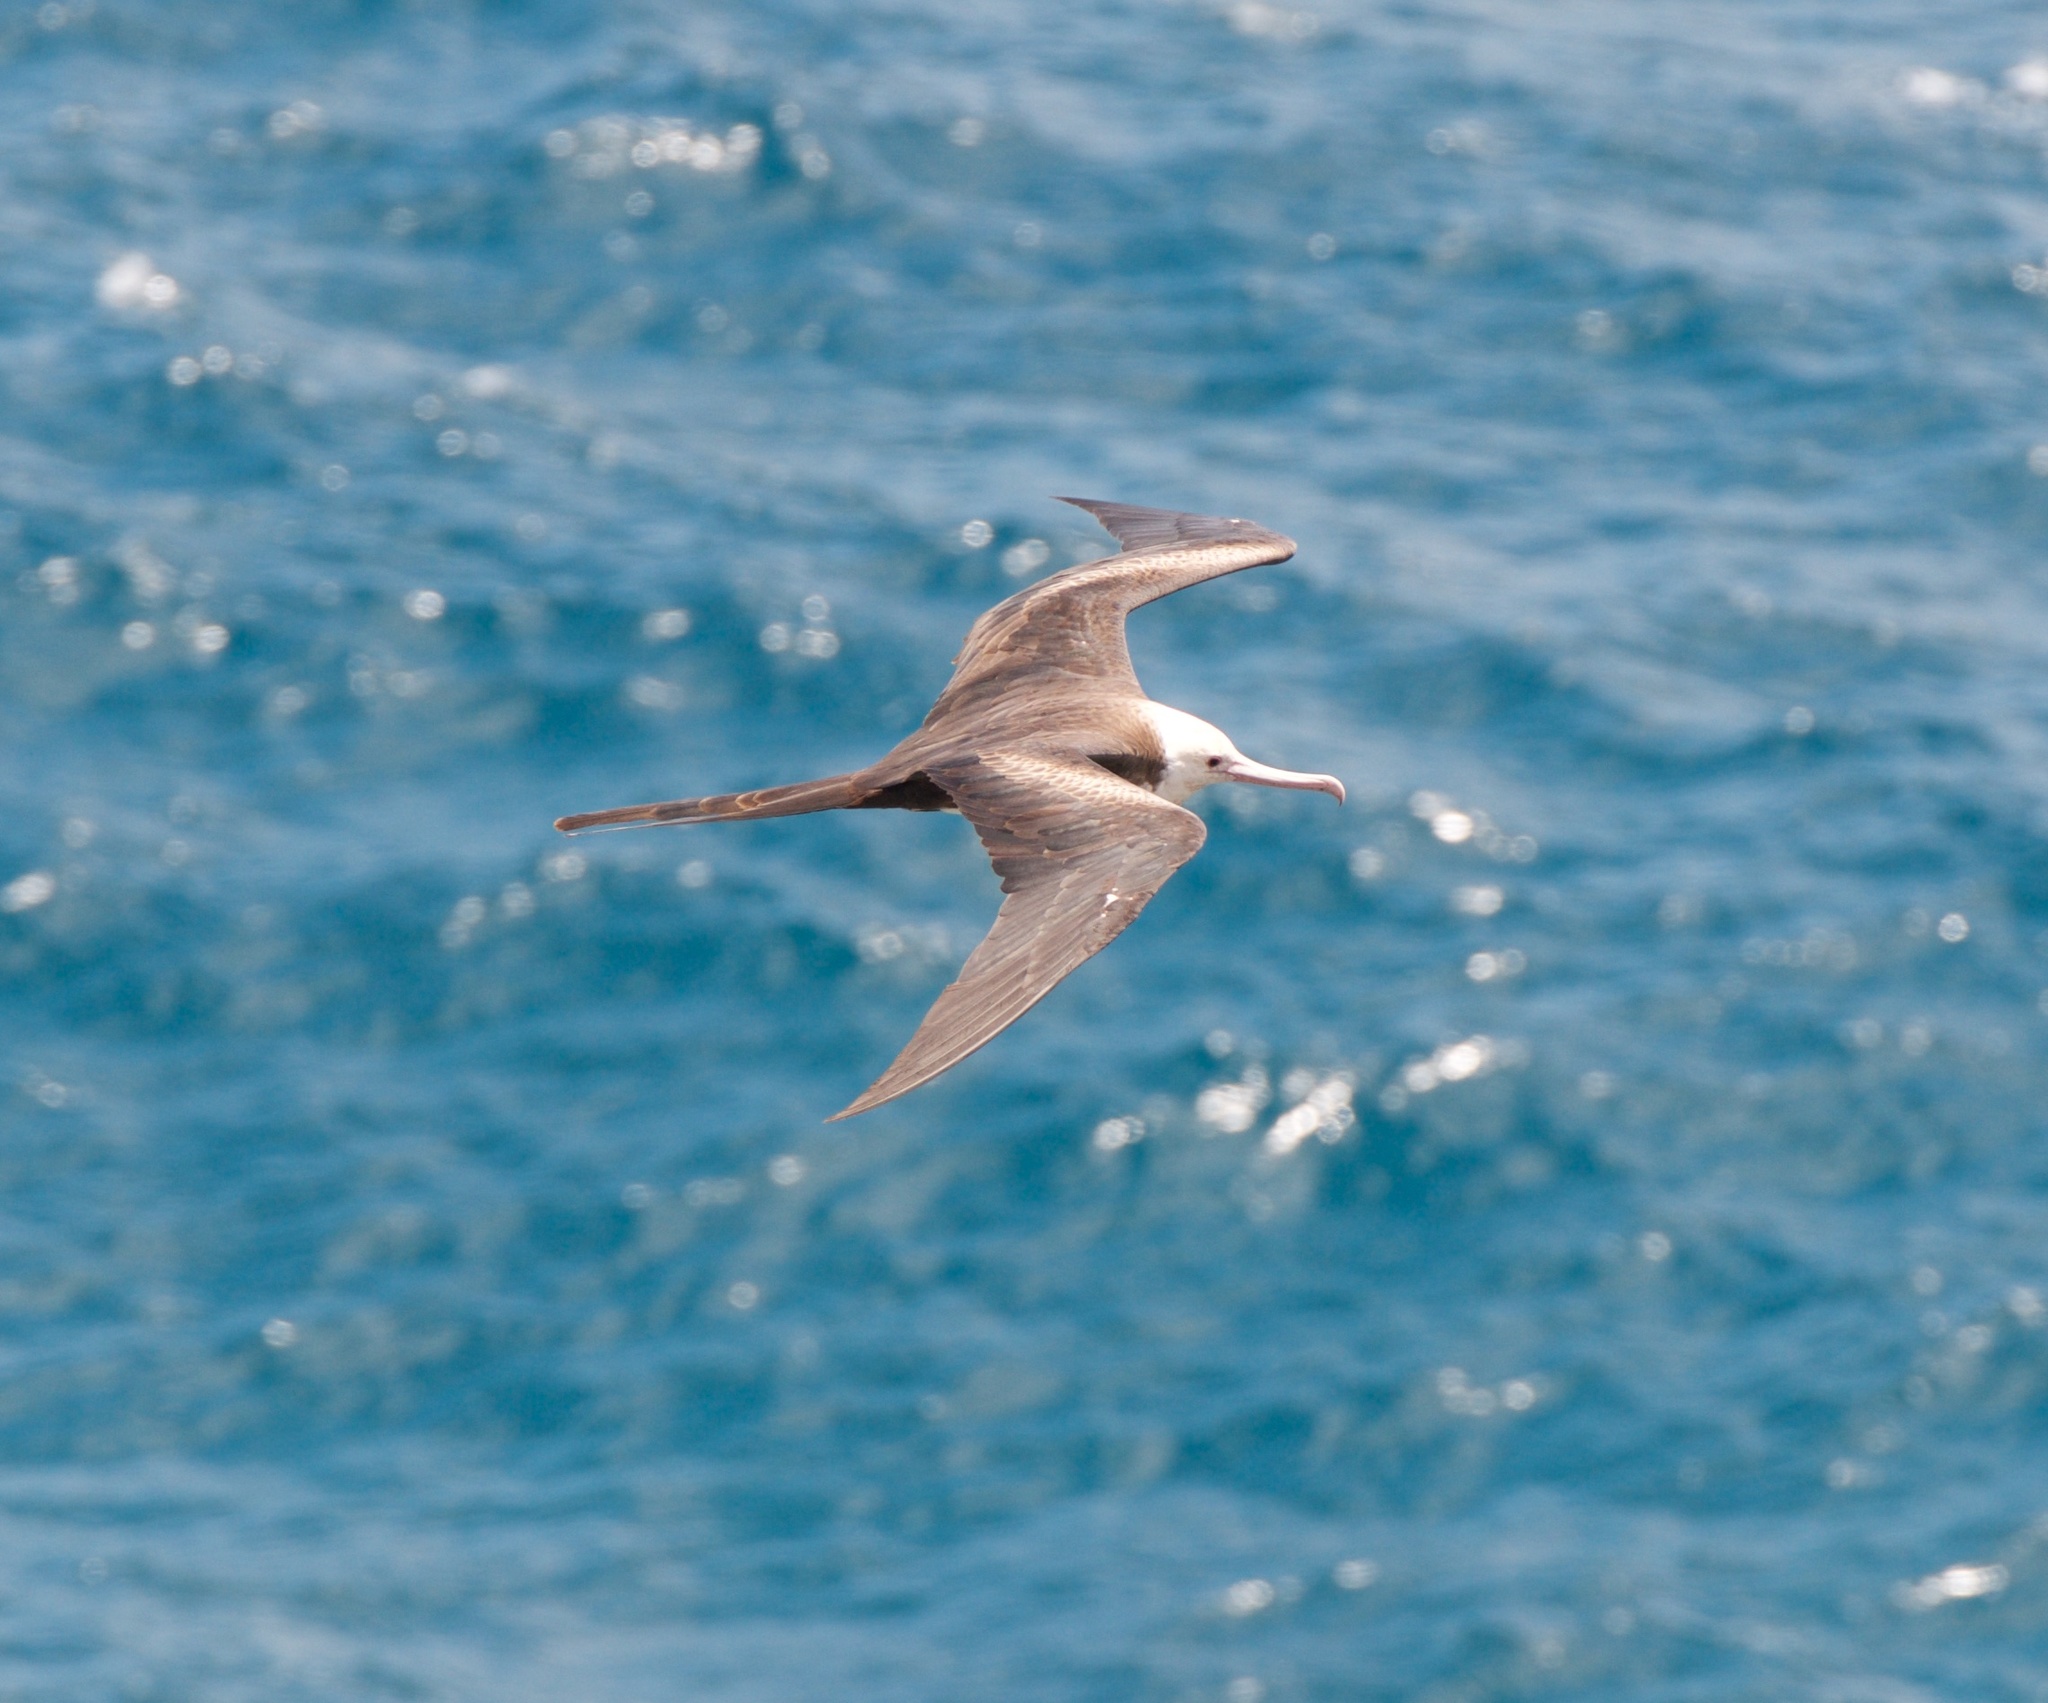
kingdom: Animalia
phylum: Chordata
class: Aves
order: Suliformes
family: Fregatidae
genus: Fregata
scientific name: Fregata minor
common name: Great frigatebird
